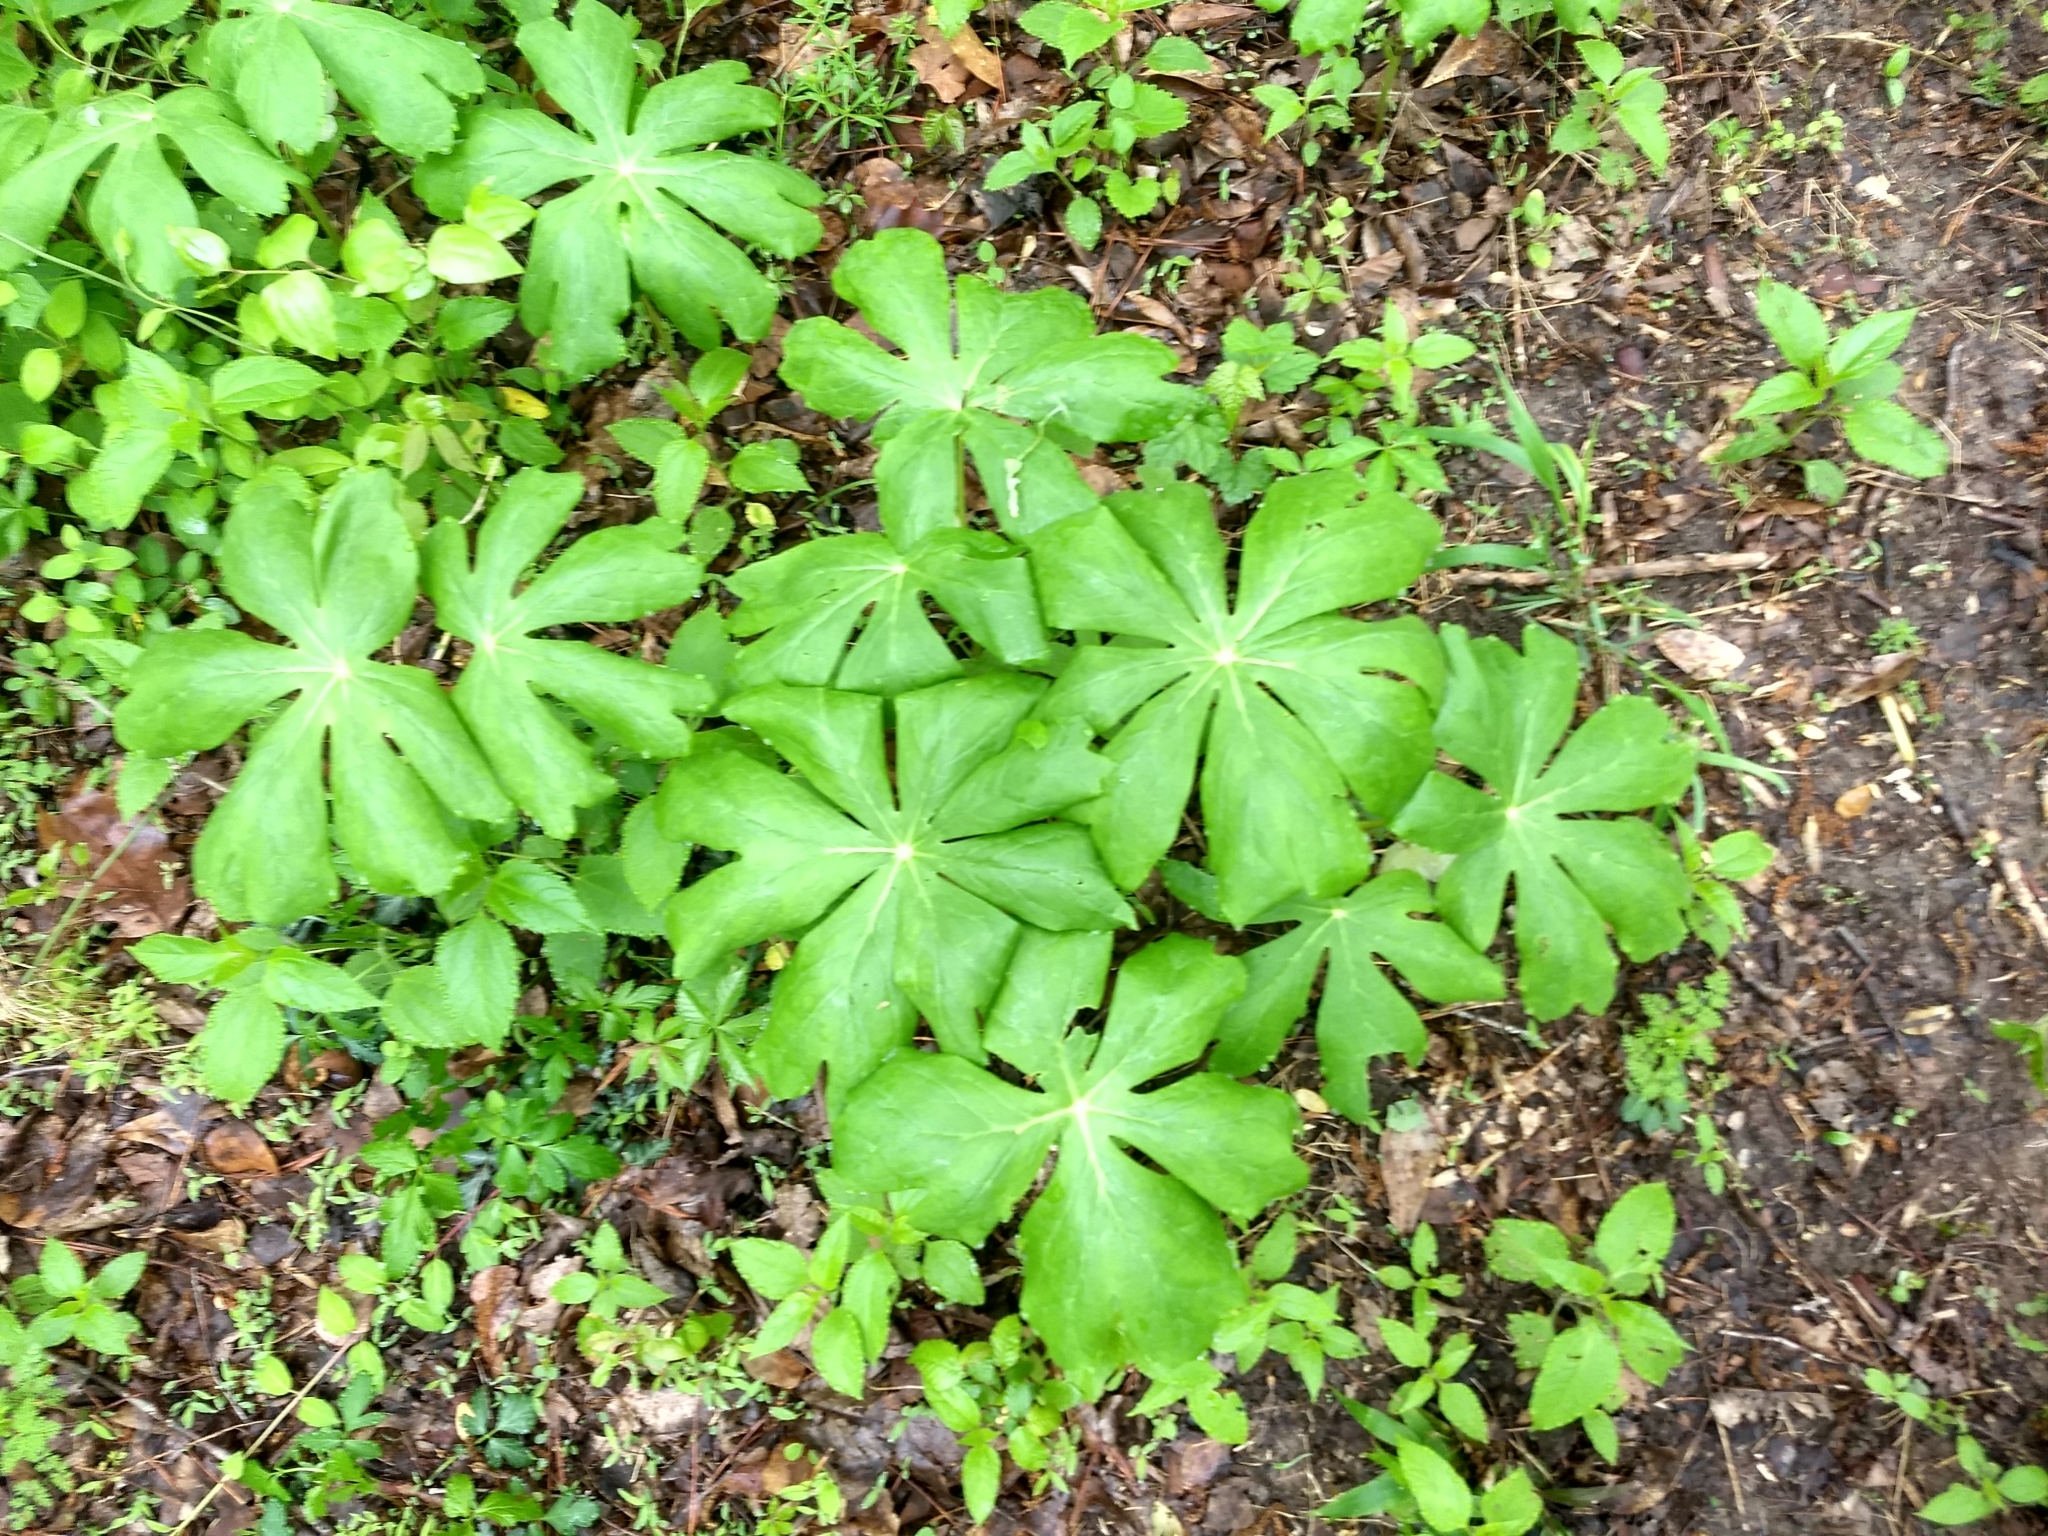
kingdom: Plantae
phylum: Tracheophyta
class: Magnoliopsida
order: Ranunculales
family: Berberidaceae
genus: Podophyllum
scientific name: Podophyllum peltatum
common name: Wild mandrake
